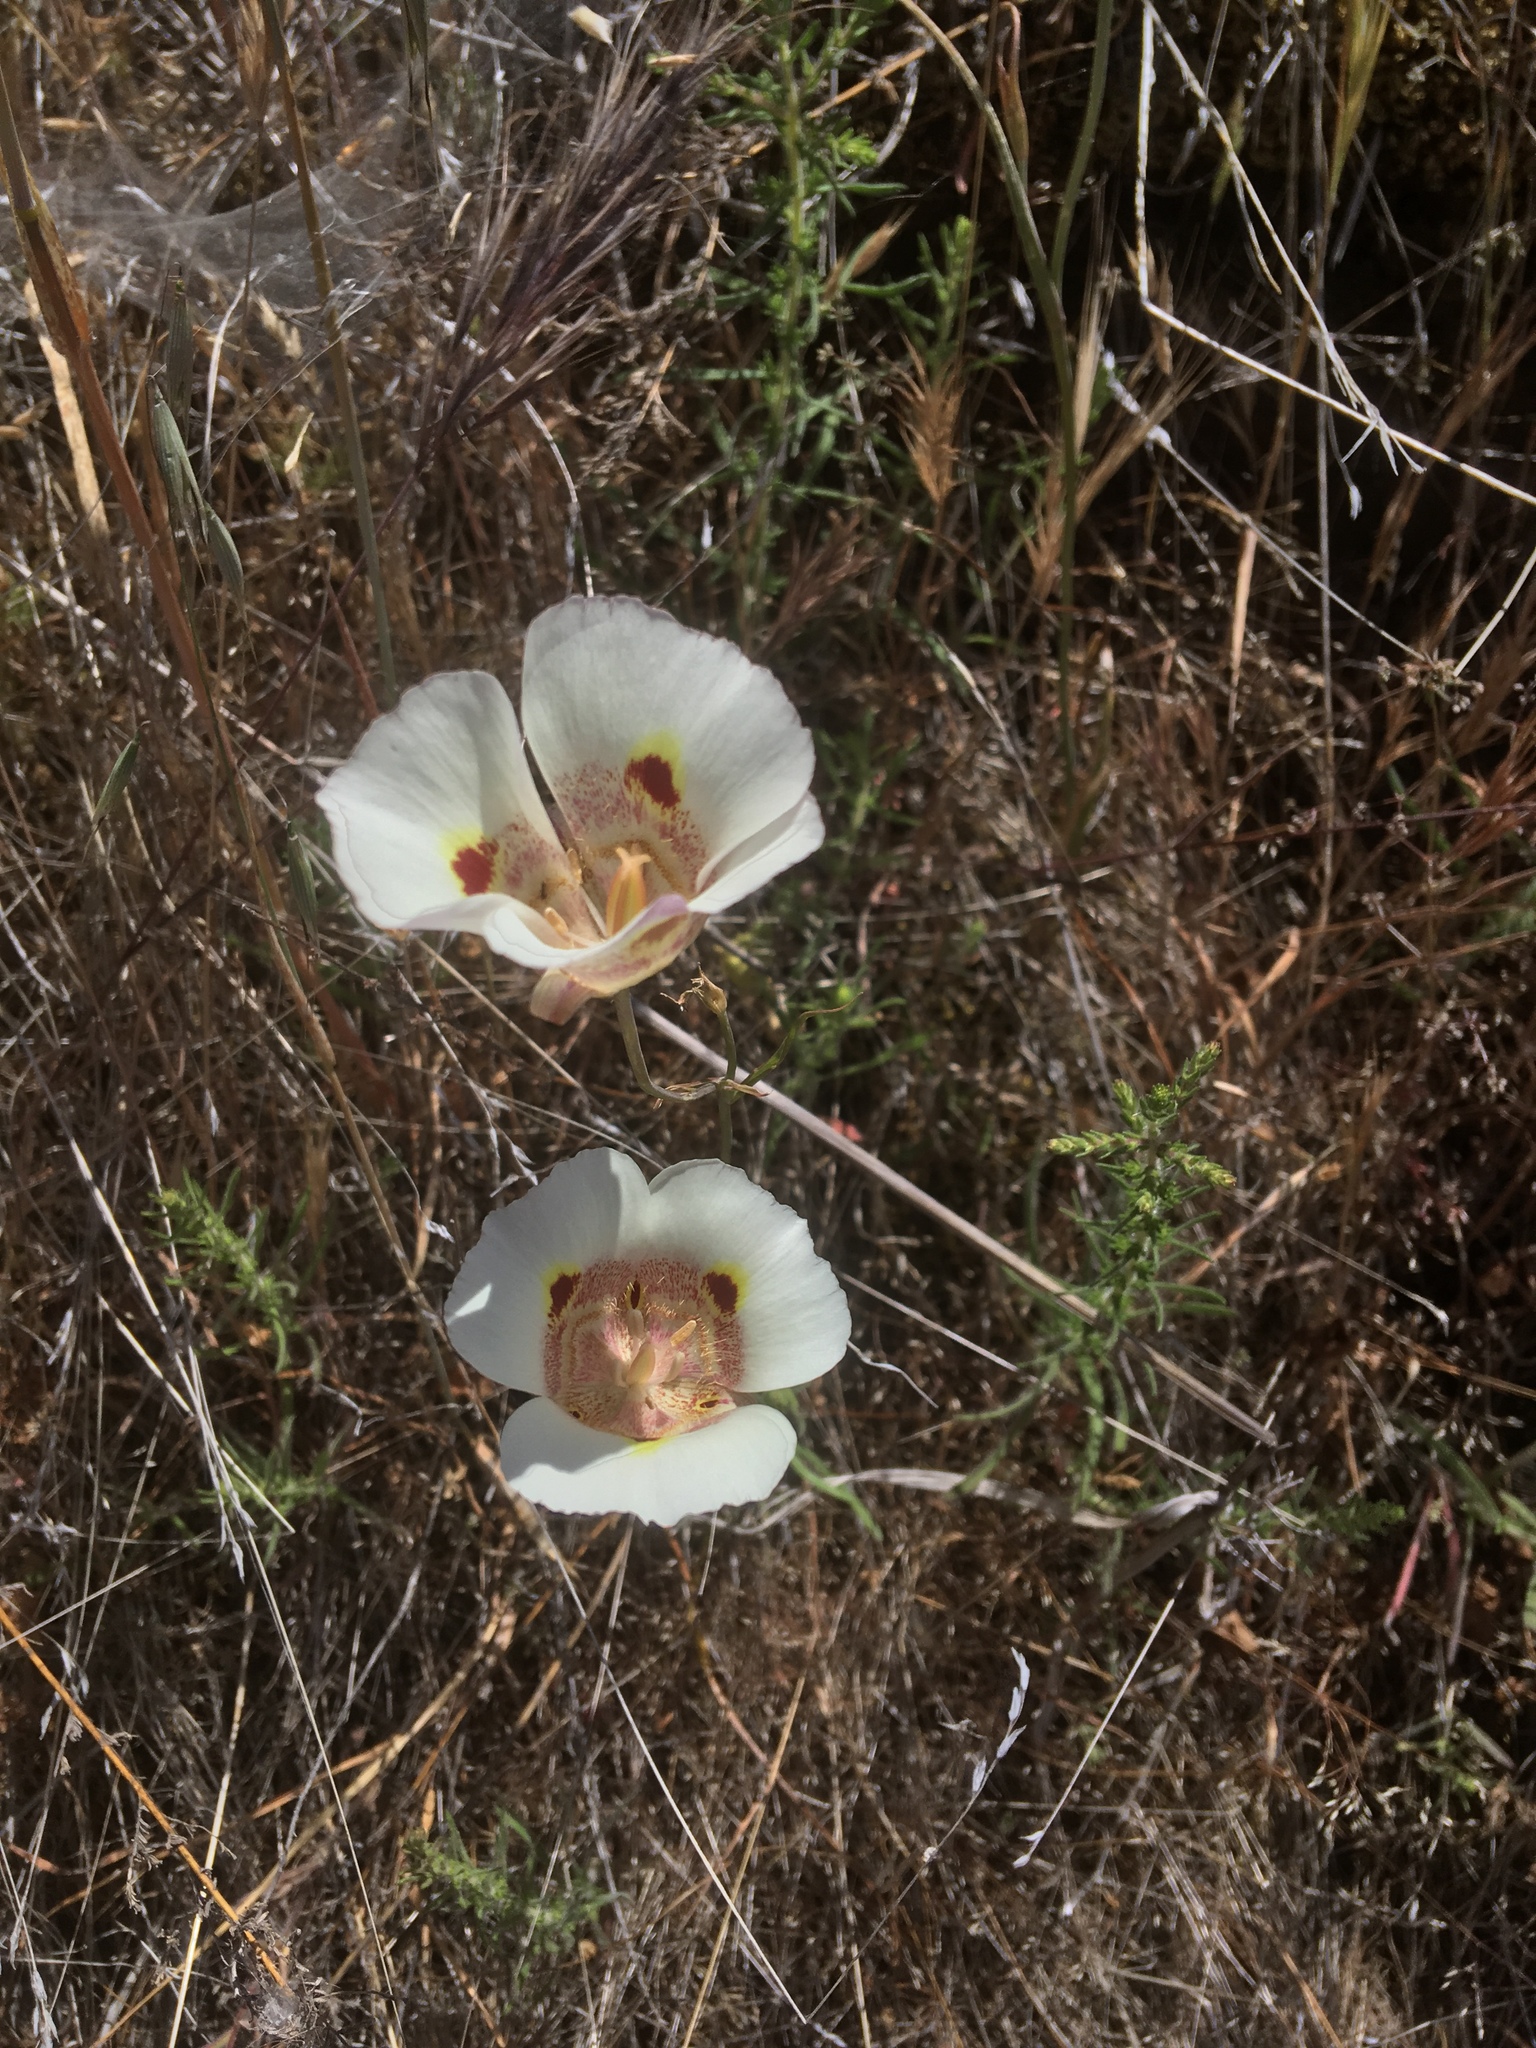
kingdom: Plantae
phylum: Tracheophyta
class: Liliopsida
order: Liliales
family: Liliaceae
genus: Calochortus
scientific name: Calochortus superbus
